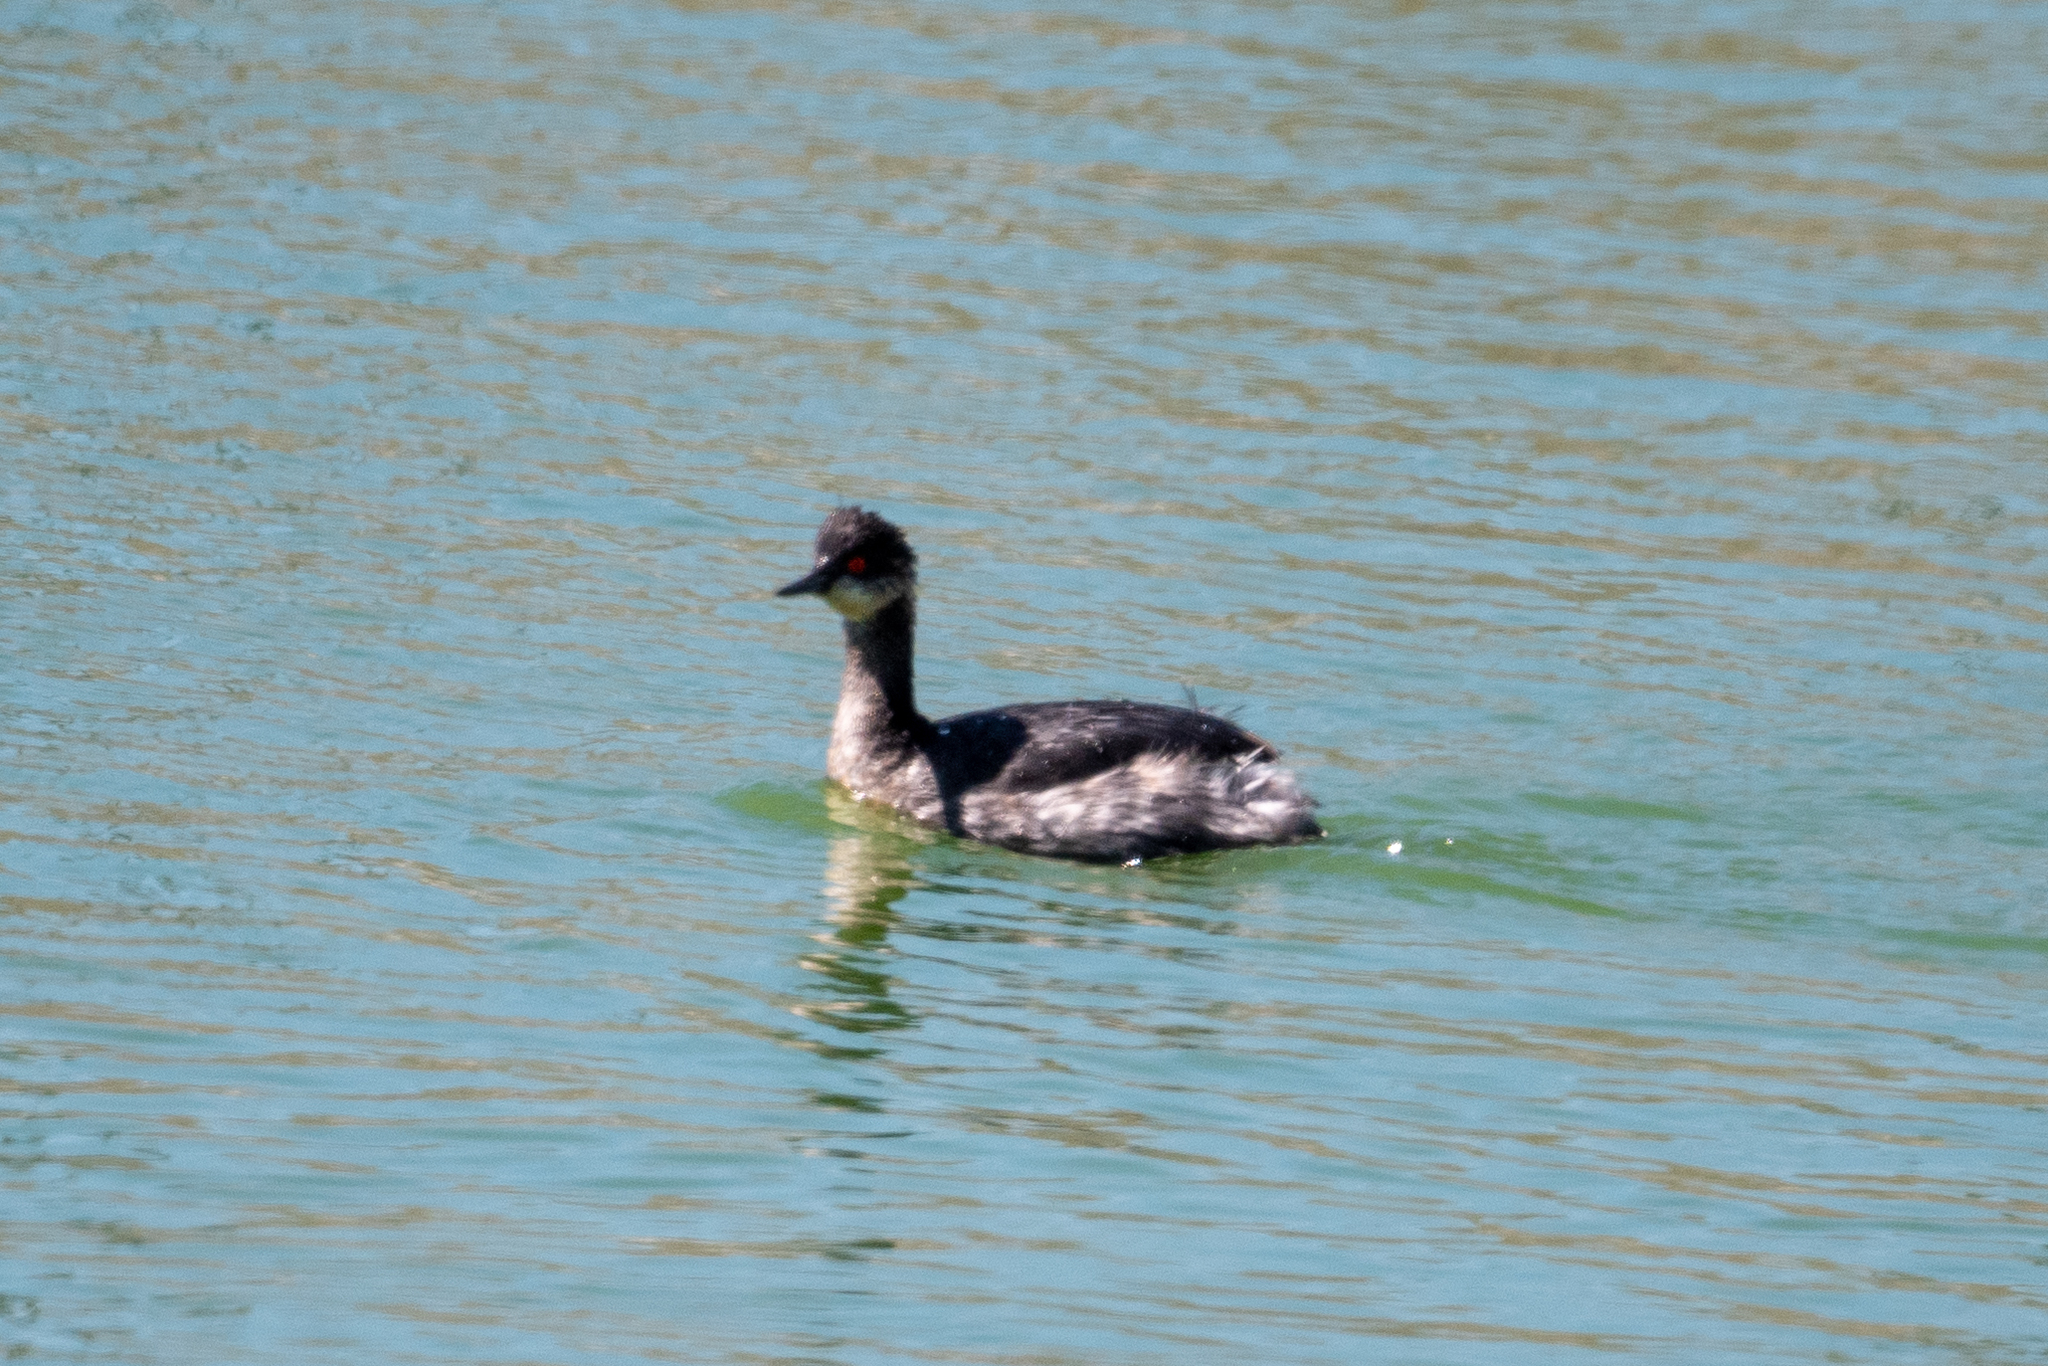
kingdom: Animalia
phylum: Chordata
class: Aves
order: Podicipediformes
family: Podicipedidae
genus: Podiceps
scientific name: Podiceps nigricollis
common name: Black-necked grebe
